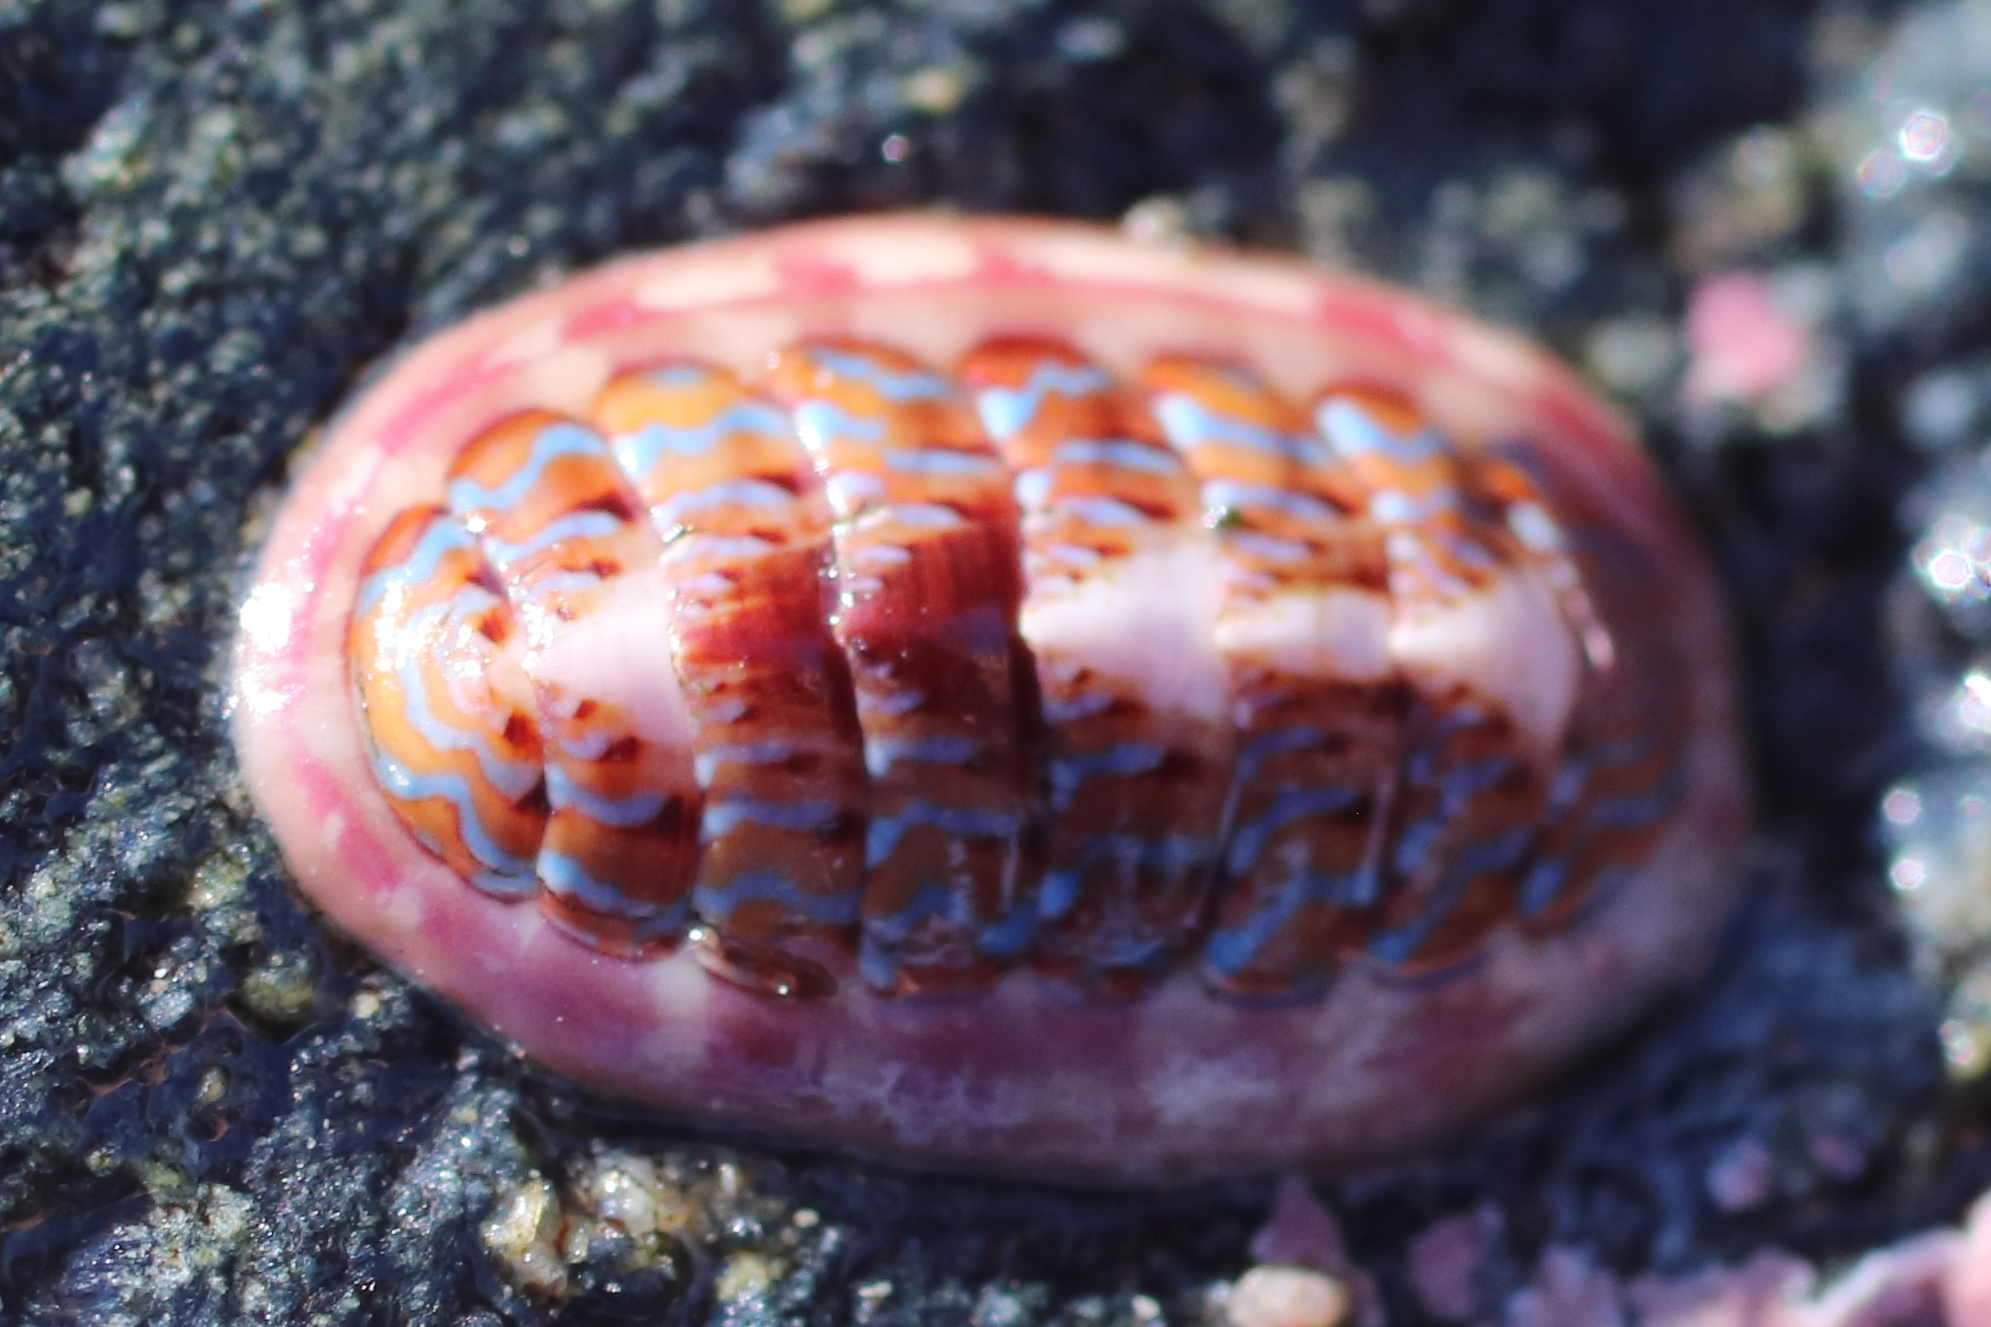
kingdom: Animalia
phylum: Mollusca
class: Polyplacophora
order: Chitonida
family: Tonicellidae
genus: Tonicella
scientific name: Tonicella undocaerulea
